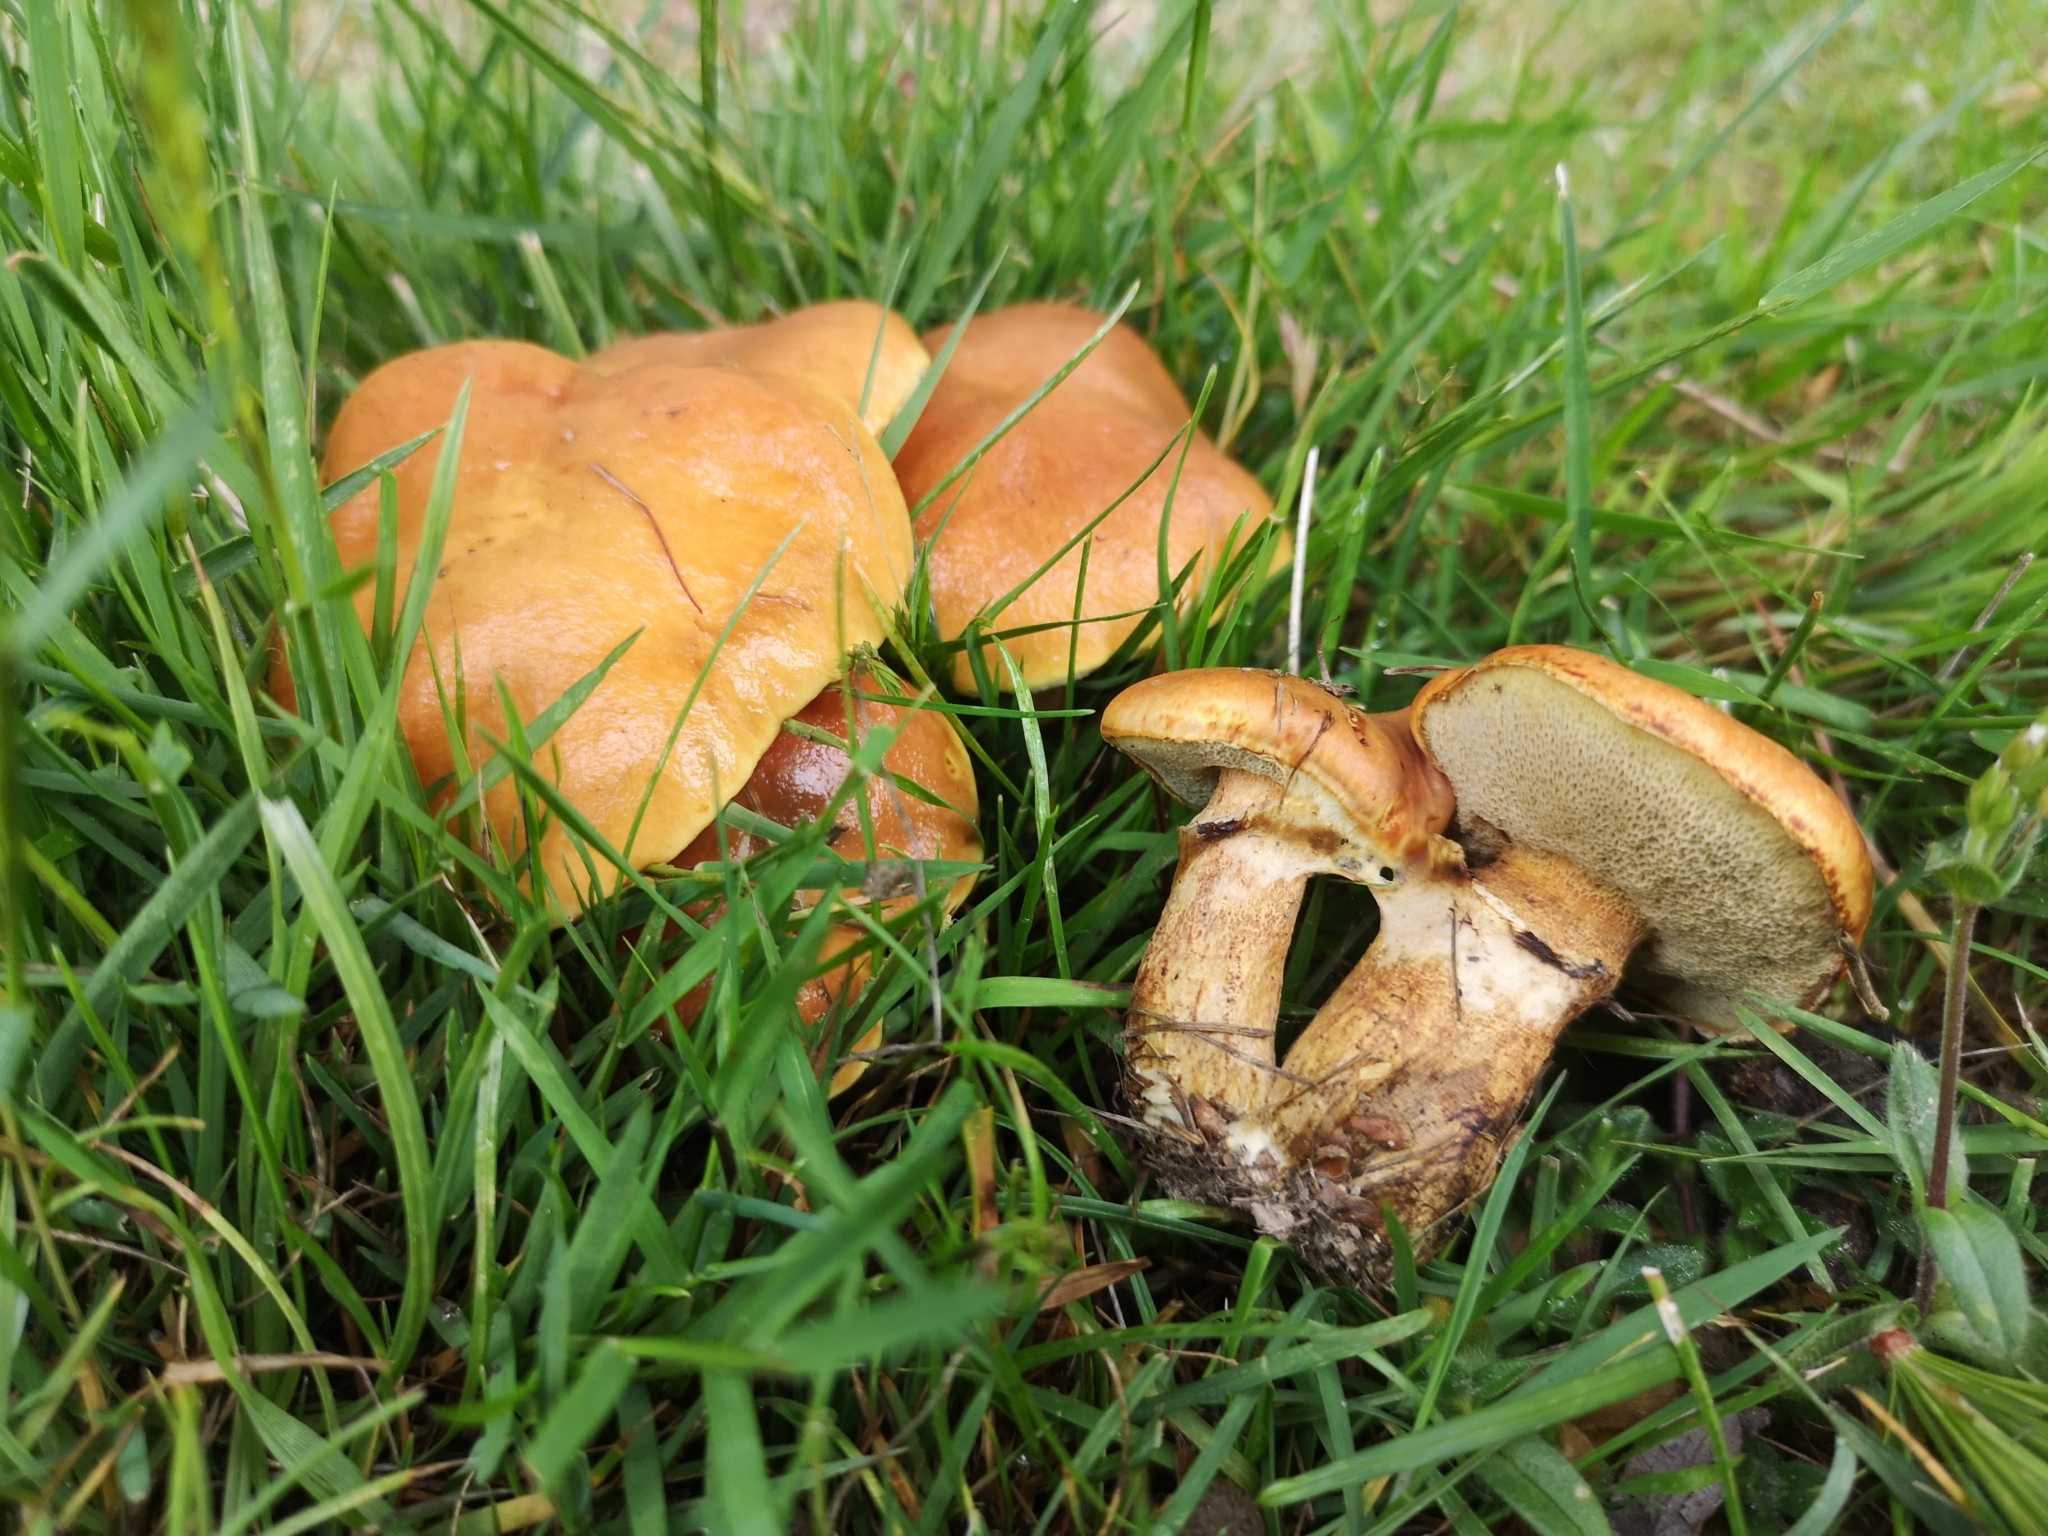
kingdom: Fungi
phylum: Basidiomycota
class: Agaricomycetes
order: Boletales
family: Suillaceae
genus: Suillus
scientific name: Suillus luteus
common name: Slippery jack
